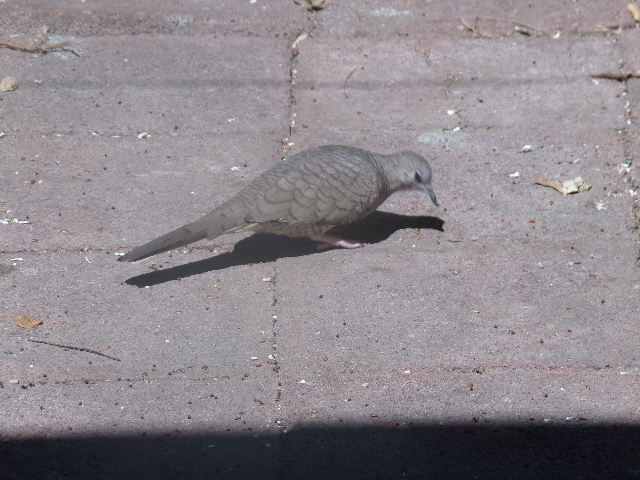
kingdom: Animalia
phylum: Chordata
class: Aves
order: Columbiformes
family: Columbidae
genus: Columbina
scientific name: Columbina inca
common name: Inca dove
